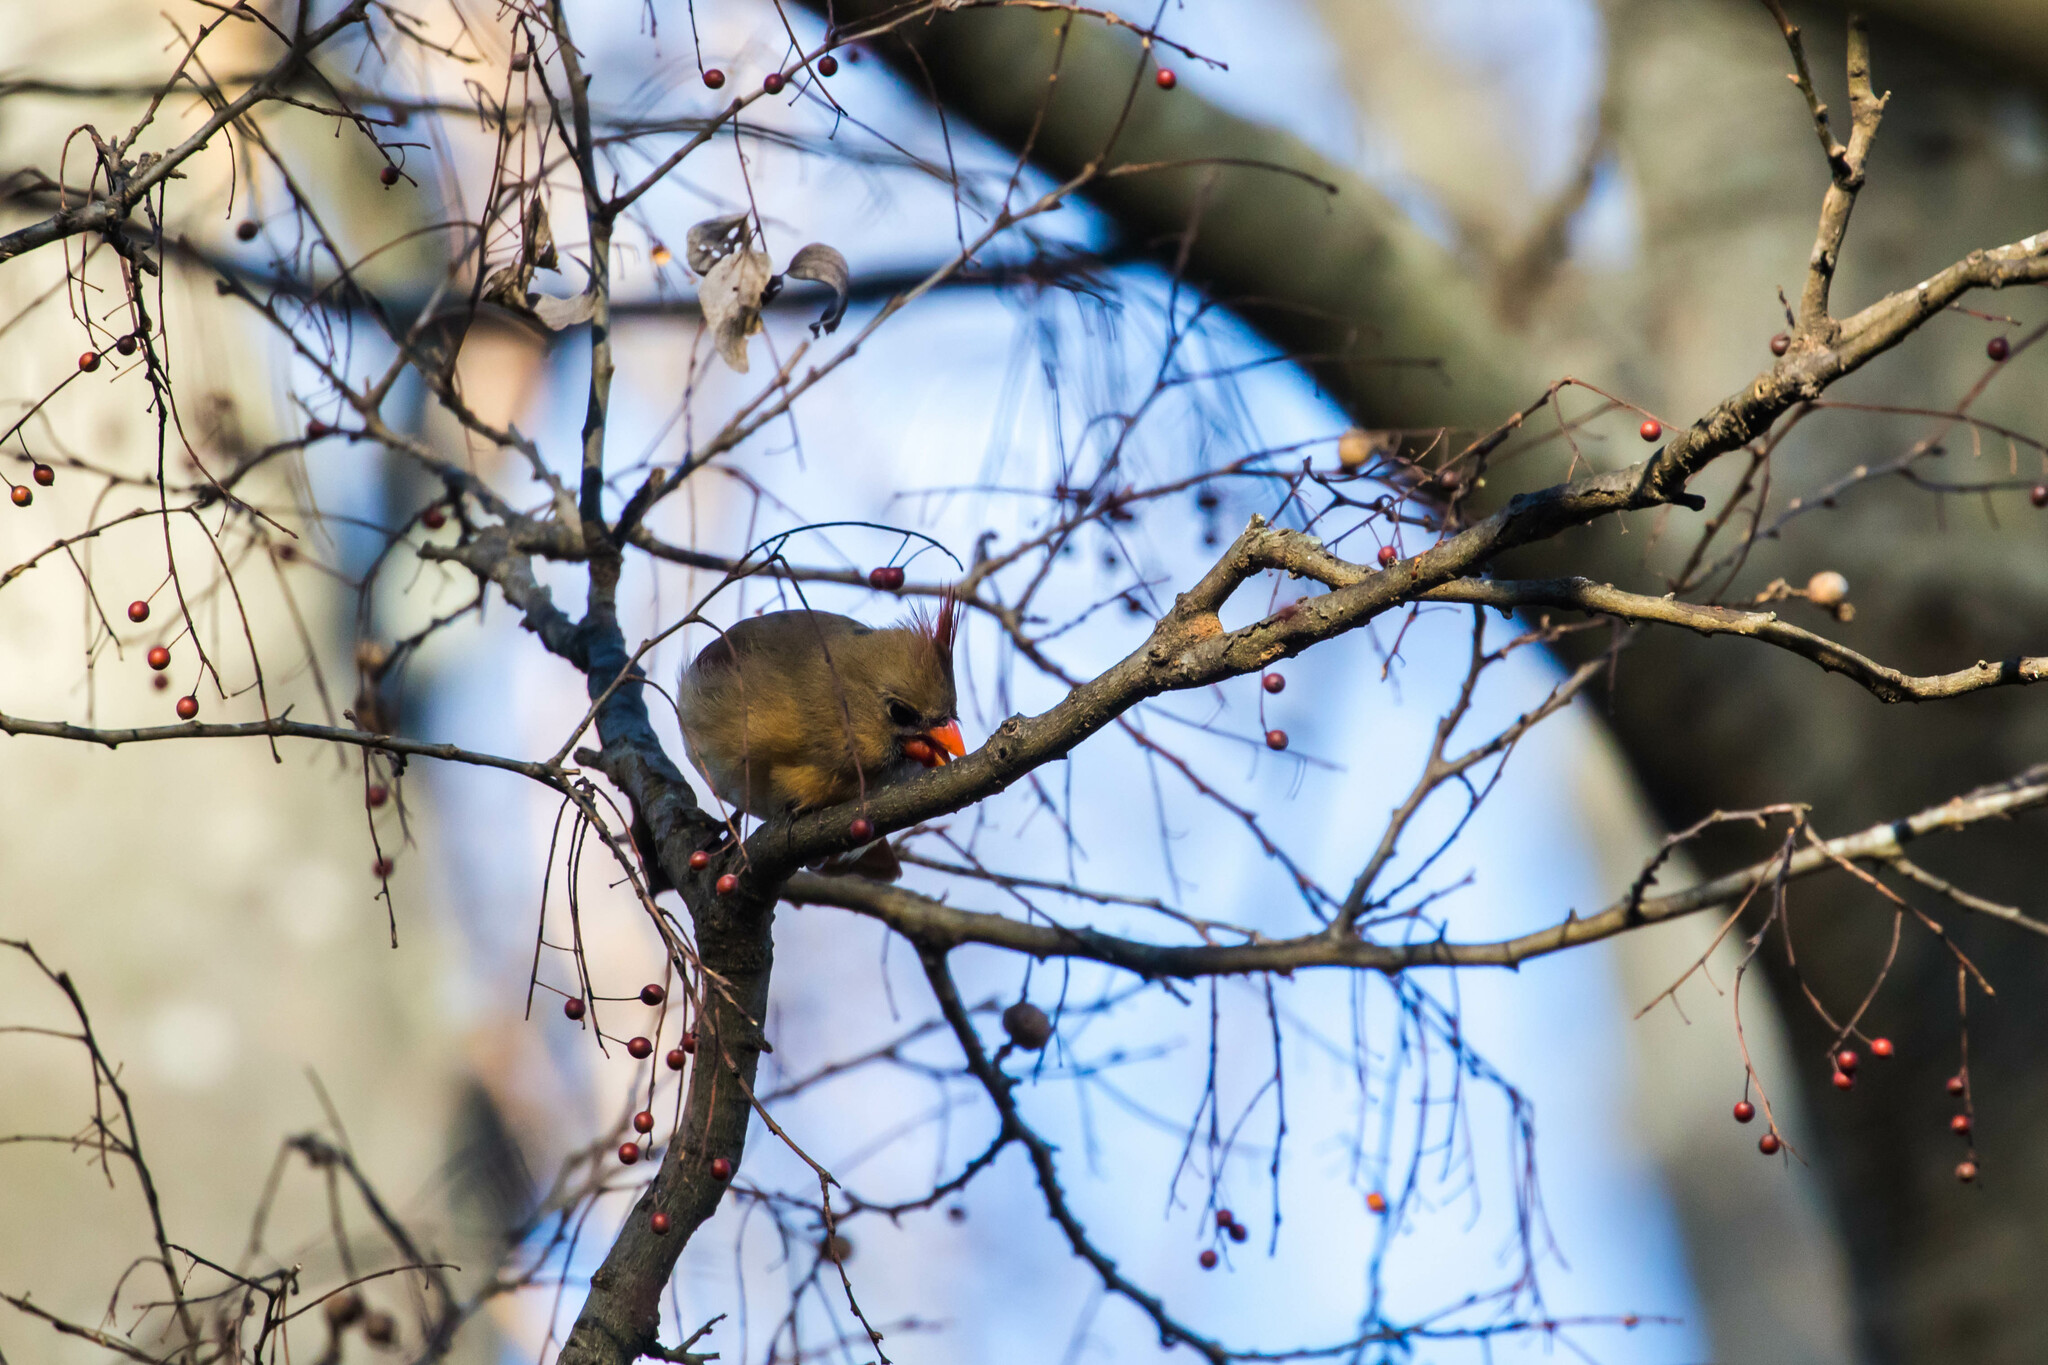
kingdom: Animalia
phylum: Chordata
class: Aves
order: Passeriformes
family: Cardinalidae
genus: Cardinalis
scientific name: Cardinalis cardinalis
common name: Northern cardinal
